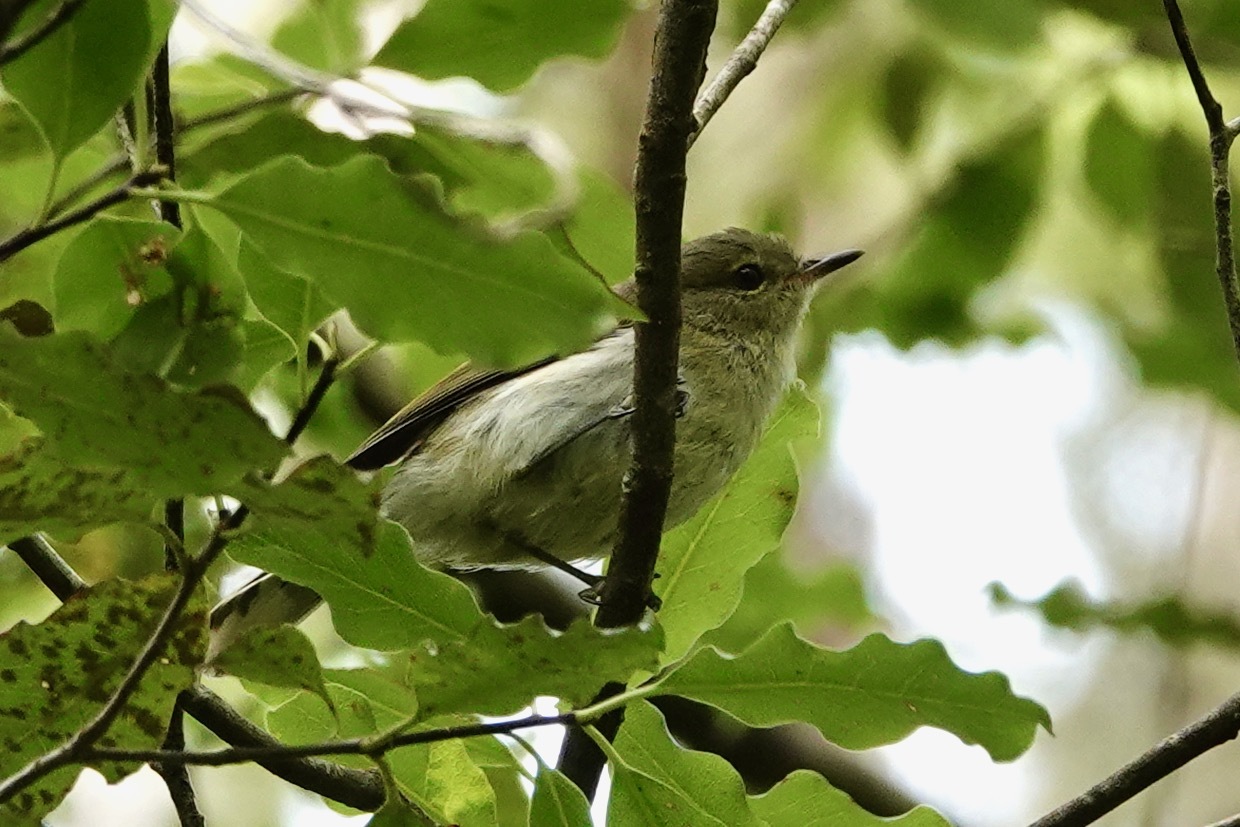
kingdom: Animalia
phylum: Chordata
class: Aves
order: Passeriformes
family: Acanthizidae
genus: Gerygone
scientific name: Gerygone igata
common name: Grey gerygone
